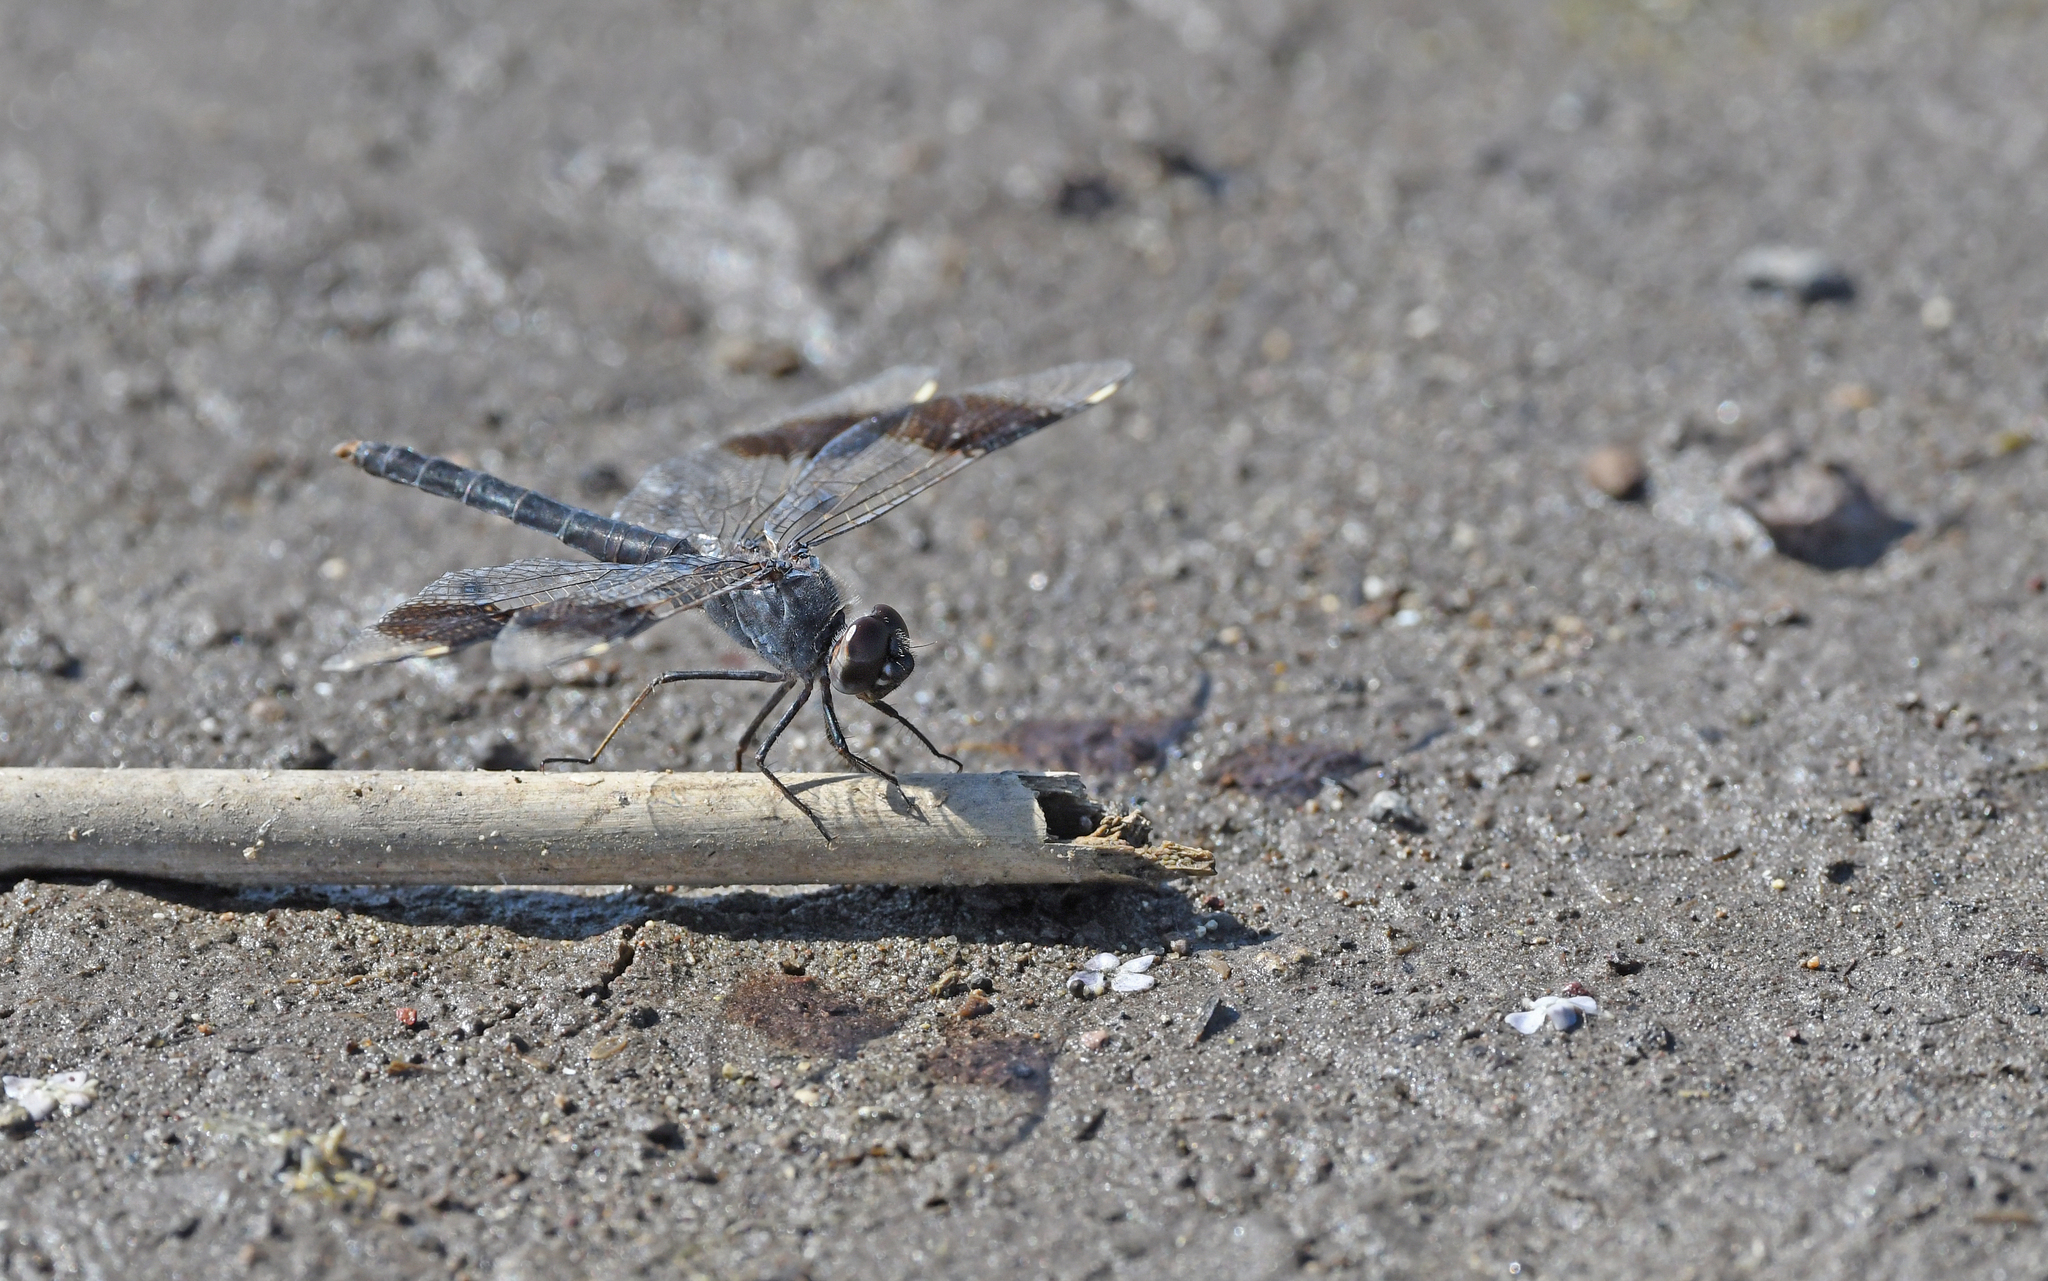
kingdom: Animalia
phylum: Arthropoda
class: Insecta
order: Odonata
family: Libellulidae
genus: Brachythemis
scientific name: Brachythemis impartita
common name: Banded groundling
